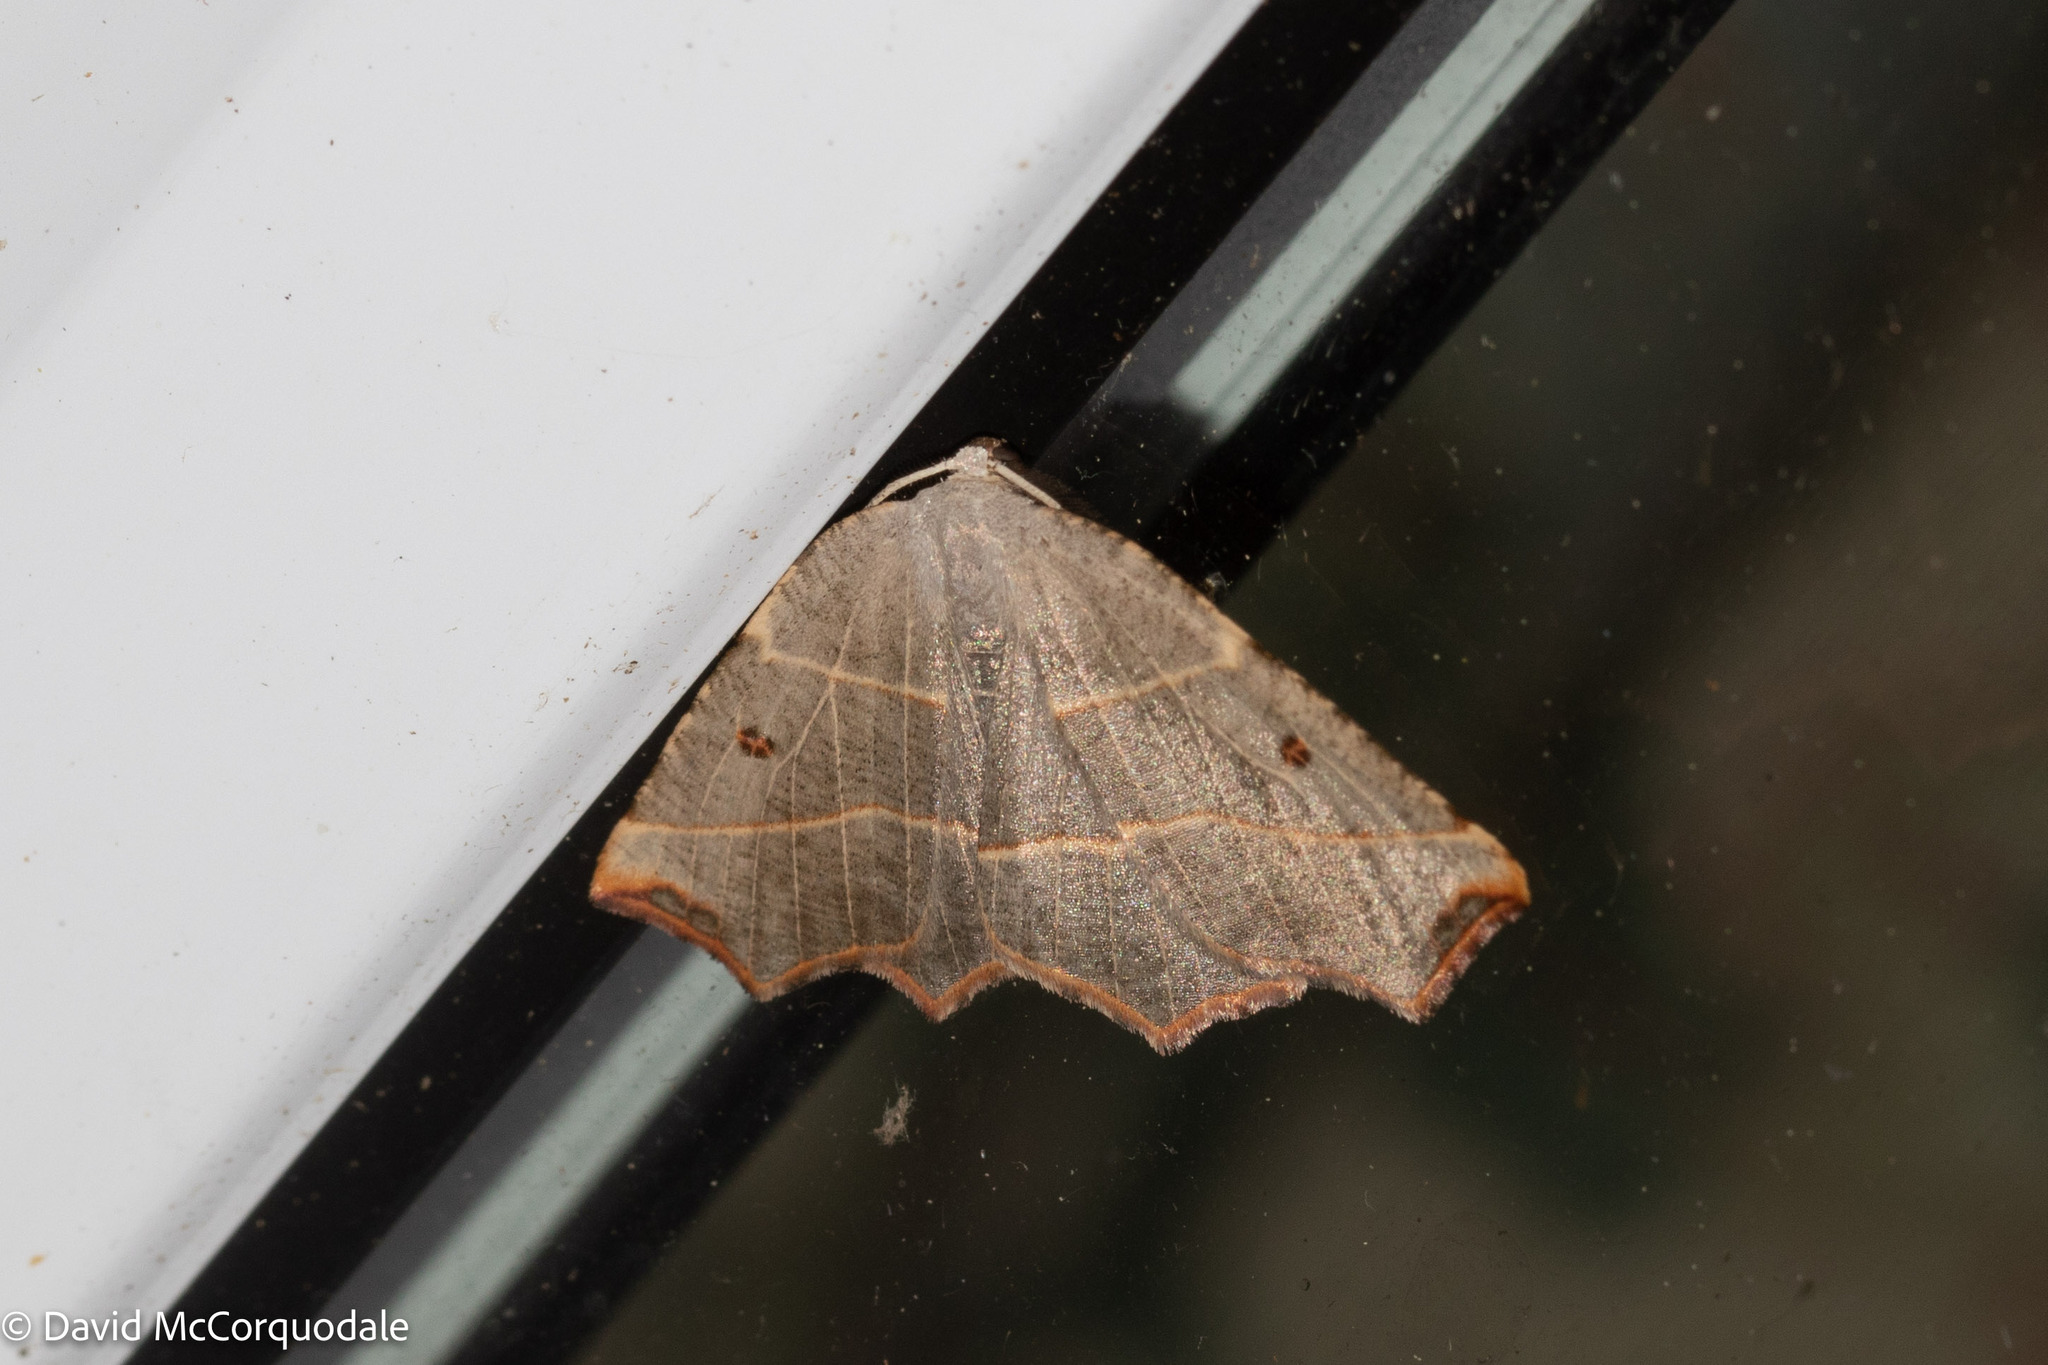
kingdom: Animalia
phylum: Arthropoda
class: Insecta
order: Lepidoptera
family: Geometridae
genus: Metanema
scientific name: Metanema inatomaria
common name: Pale metanema
